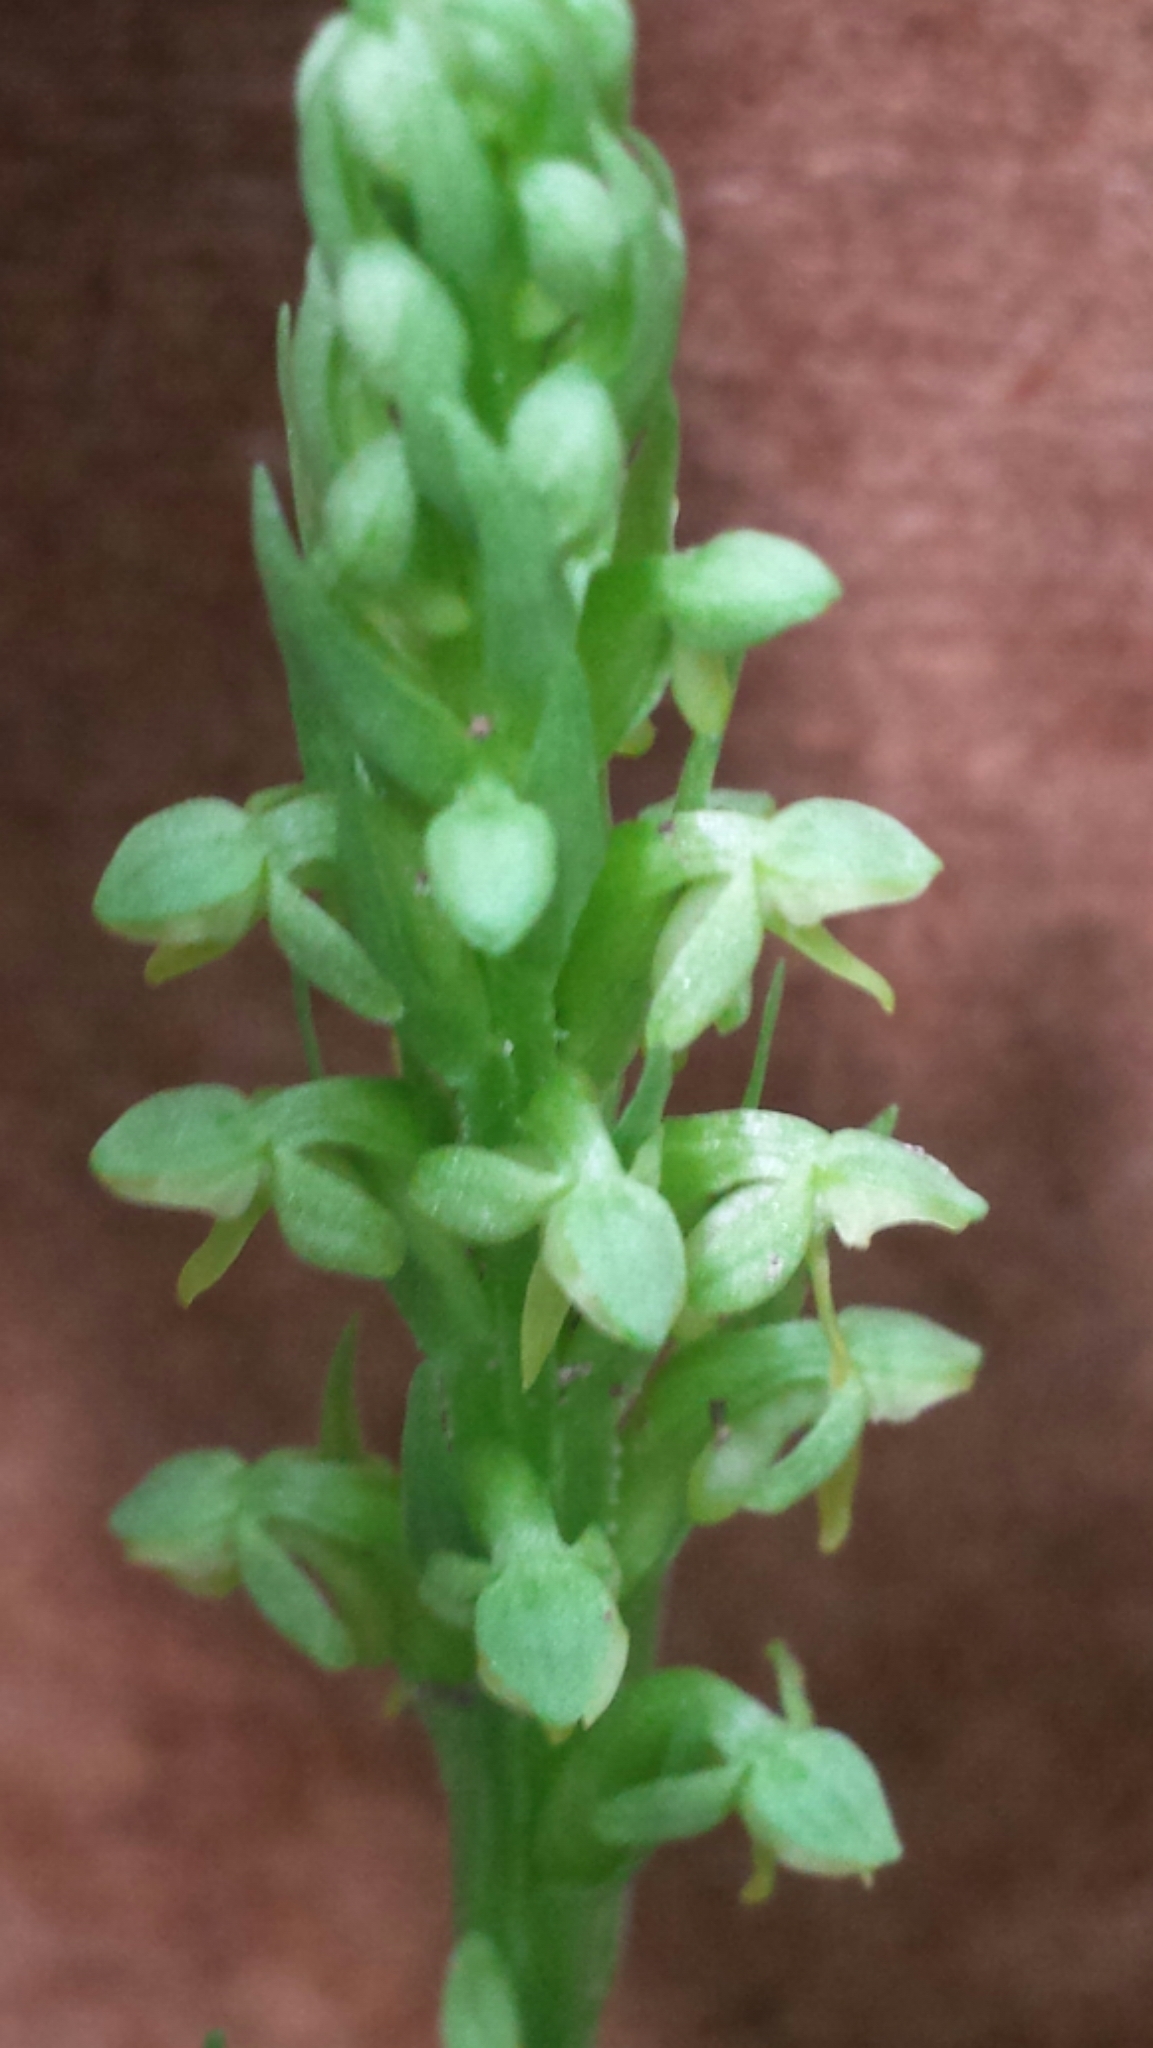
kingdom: Plantae
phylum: Tracheophyta
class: Liliopsida
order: Asparagales
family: Orchidaceae
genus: Platanthera
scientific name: Platanthera aquilonis
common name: Northern green orchid
